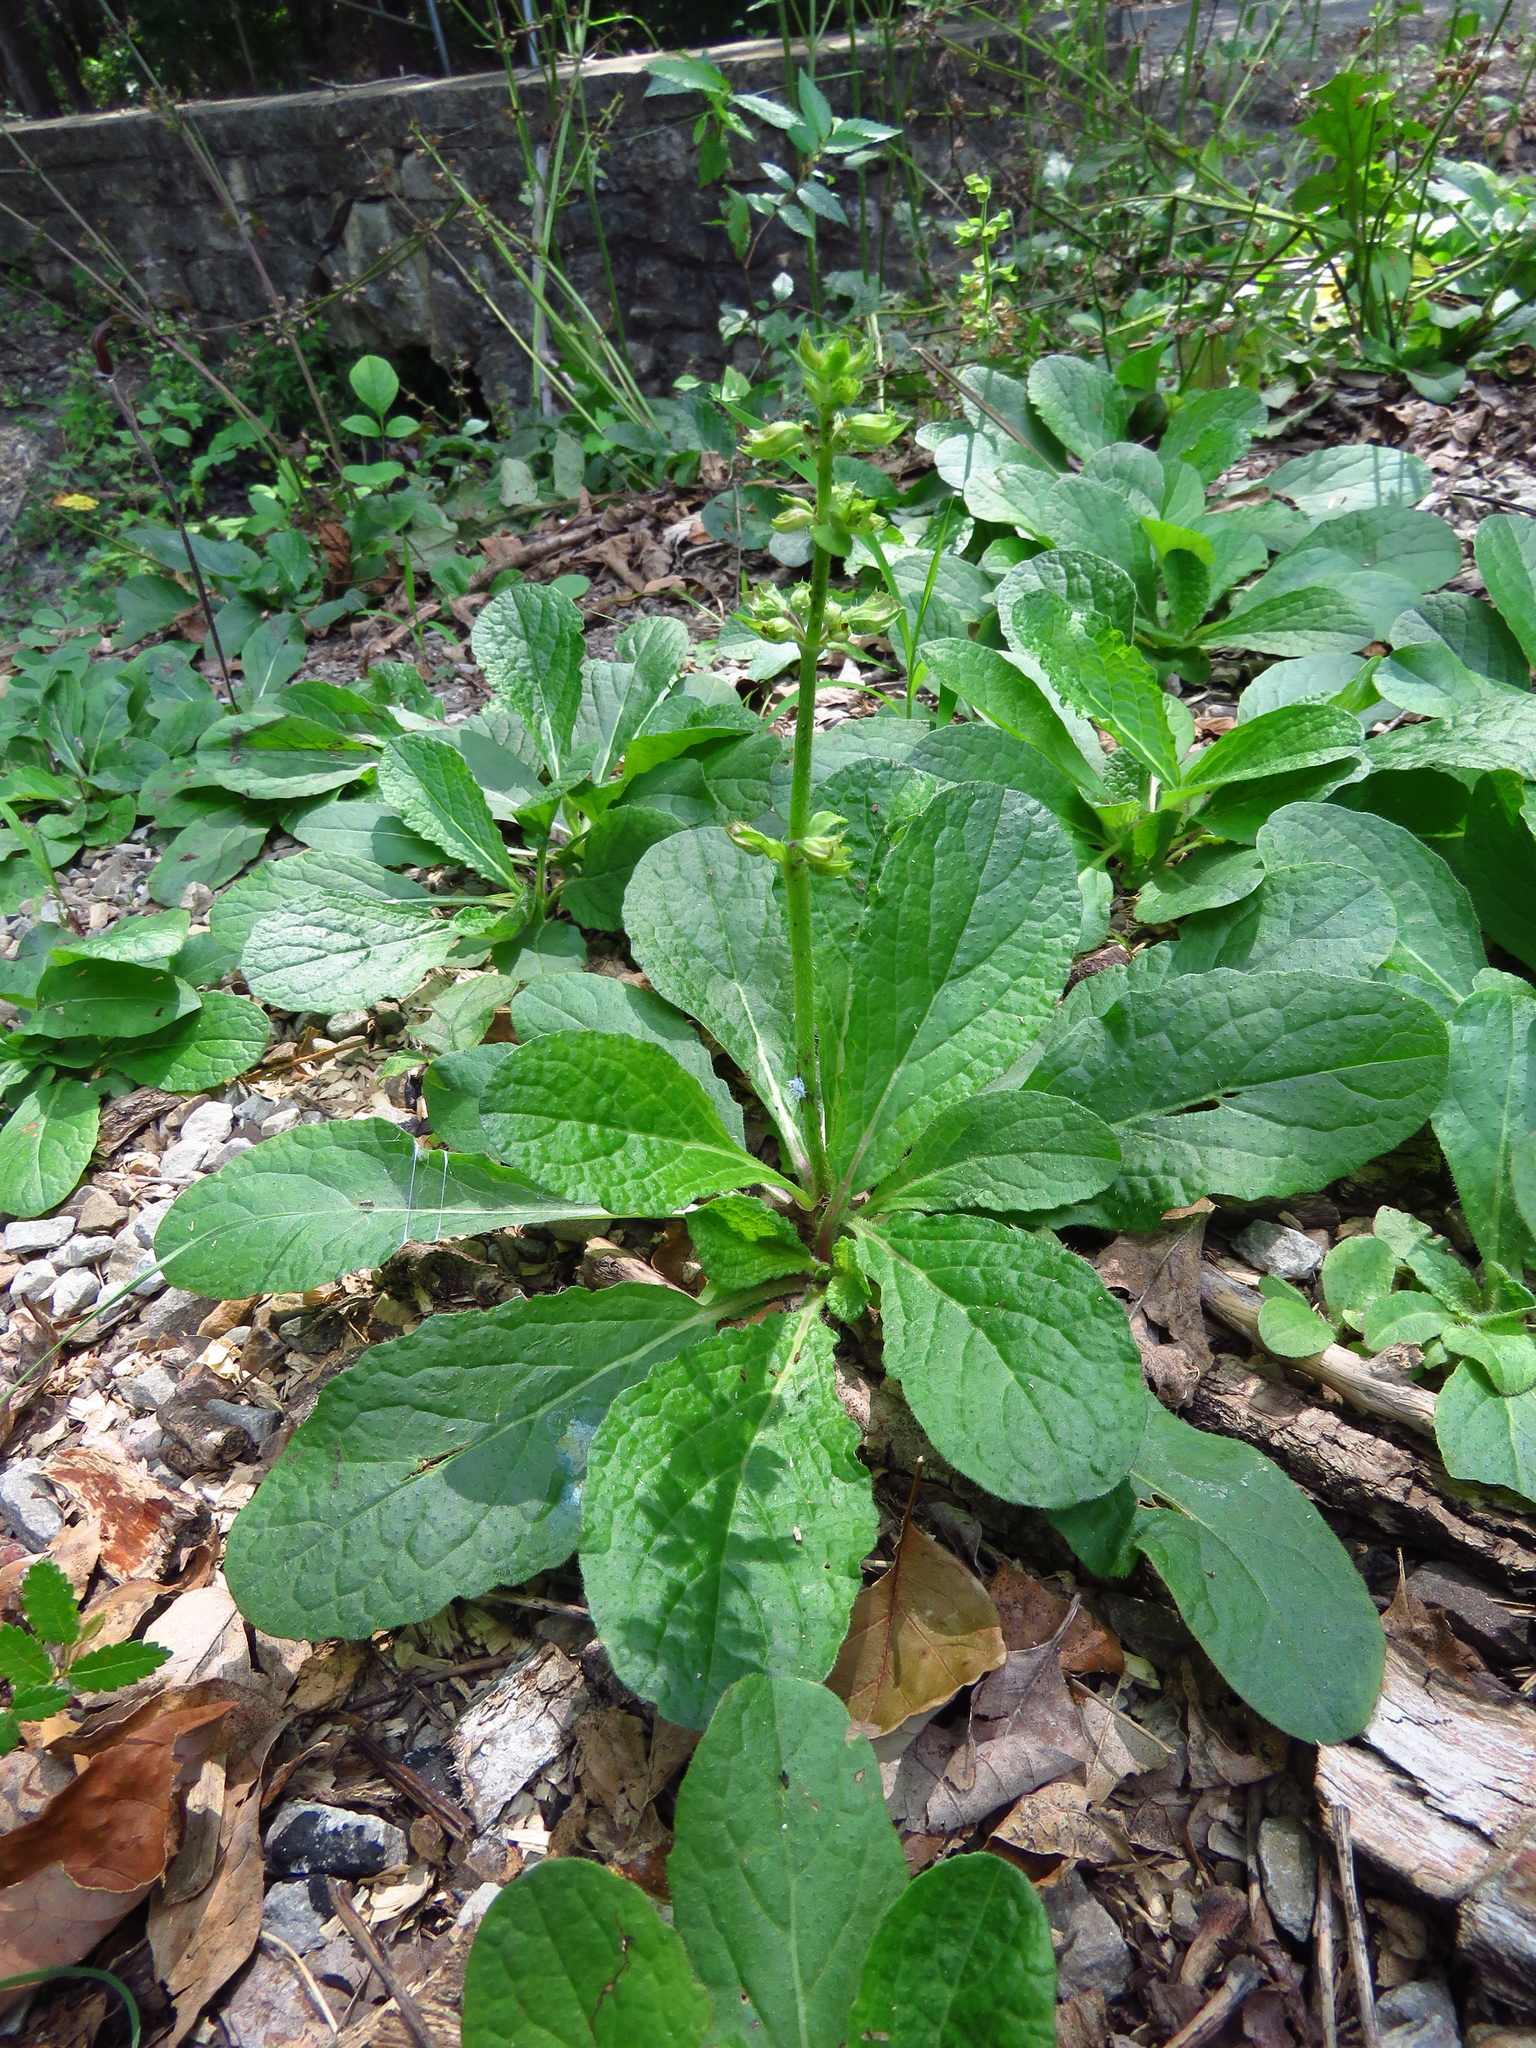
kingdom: Plantae
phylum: Tracheophyta
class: Magnoliopsida
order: Lamiales
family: Lamiaceae
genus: Salvia
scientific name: Salvia lyrata
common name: Cancerweed
